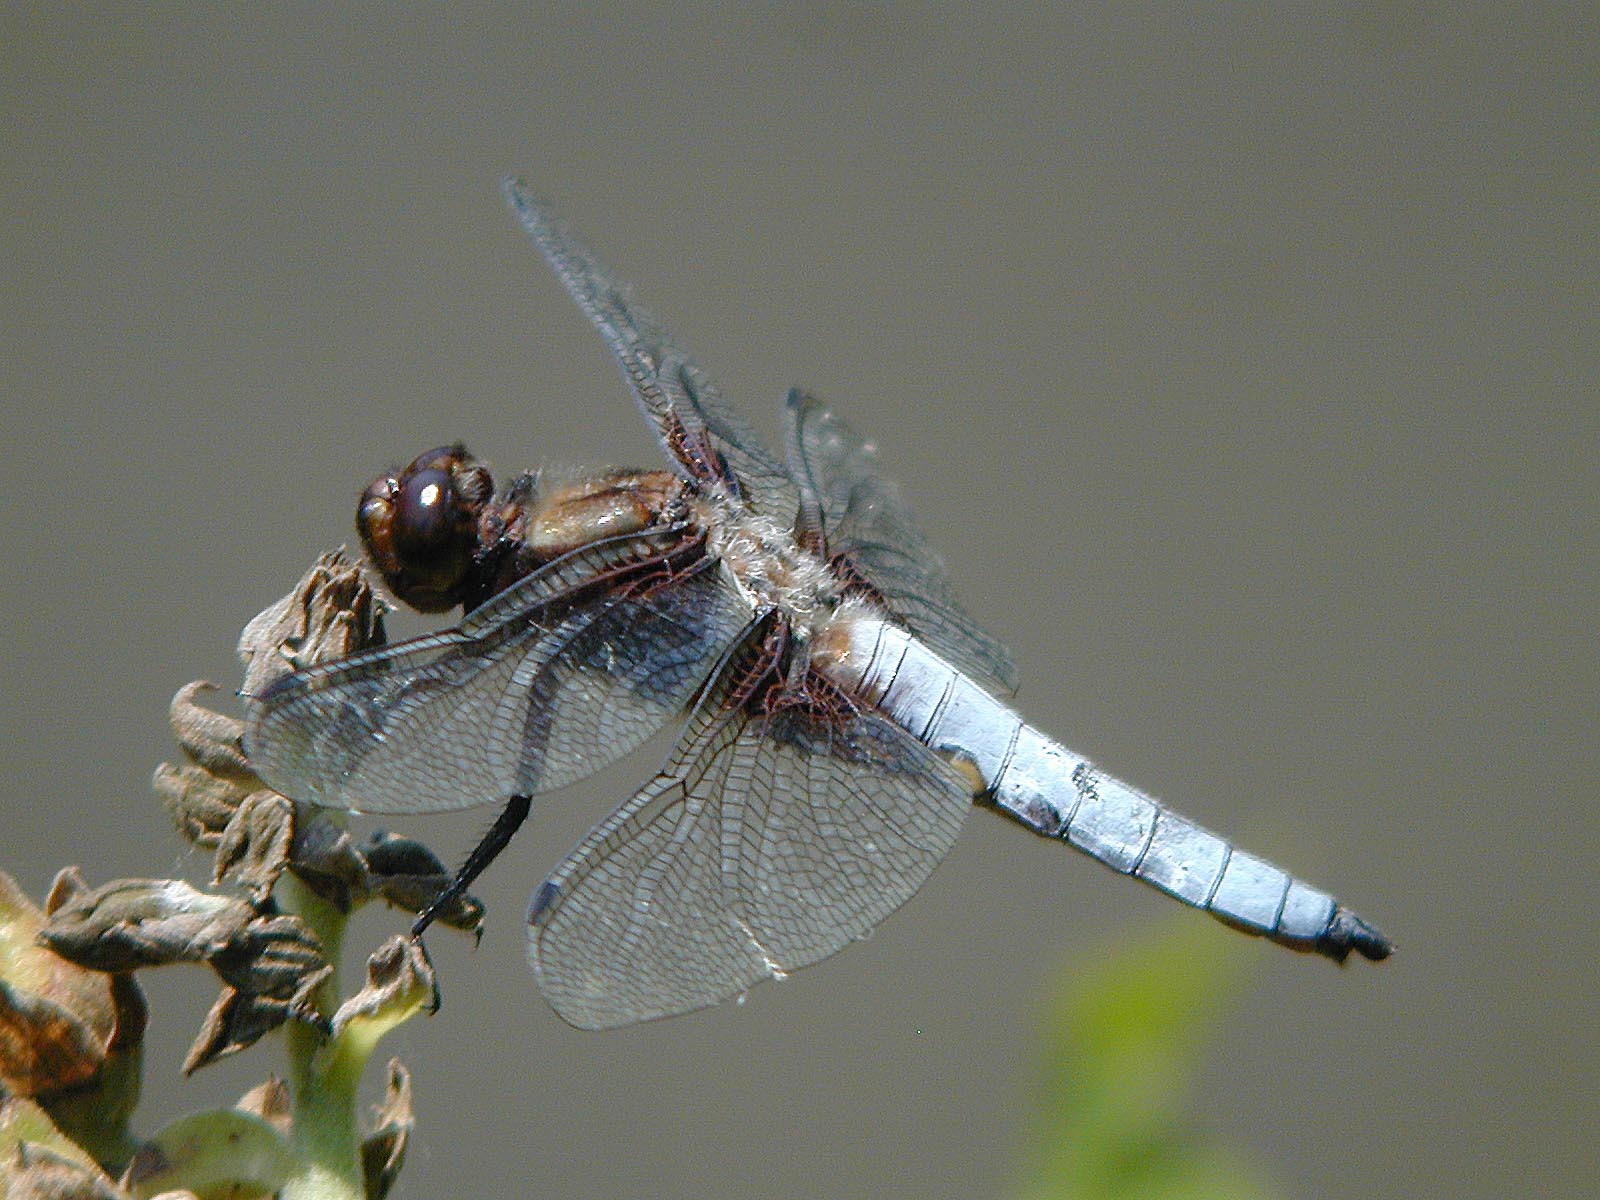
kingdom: Animalia
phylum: Arthropoda
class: Insecta
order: Odonata
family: Libellulidae
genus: Libellula
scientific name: Libellula depressa
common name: Broad-bodied chaser
